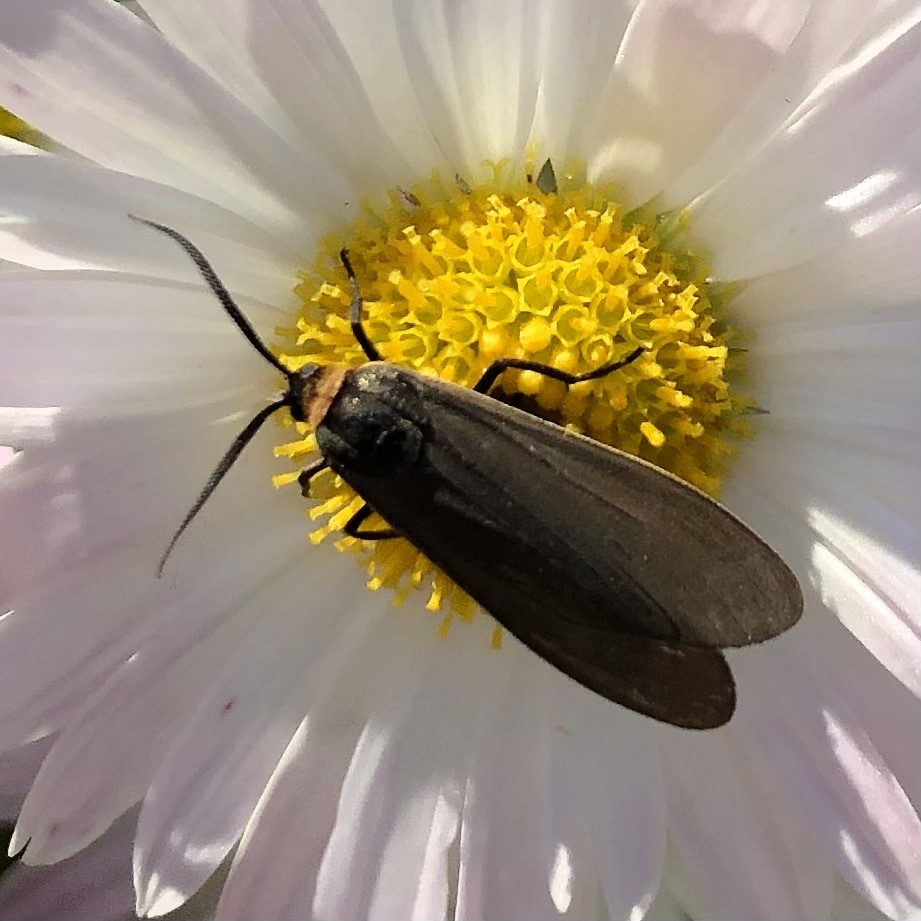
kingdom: Animalia
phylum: Arthropoda
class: Insecta
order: Lepidoptera
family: Erebidae
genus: Cisseps
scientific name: Cisseps fulvicollis
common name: Yellow-collared scape moth
